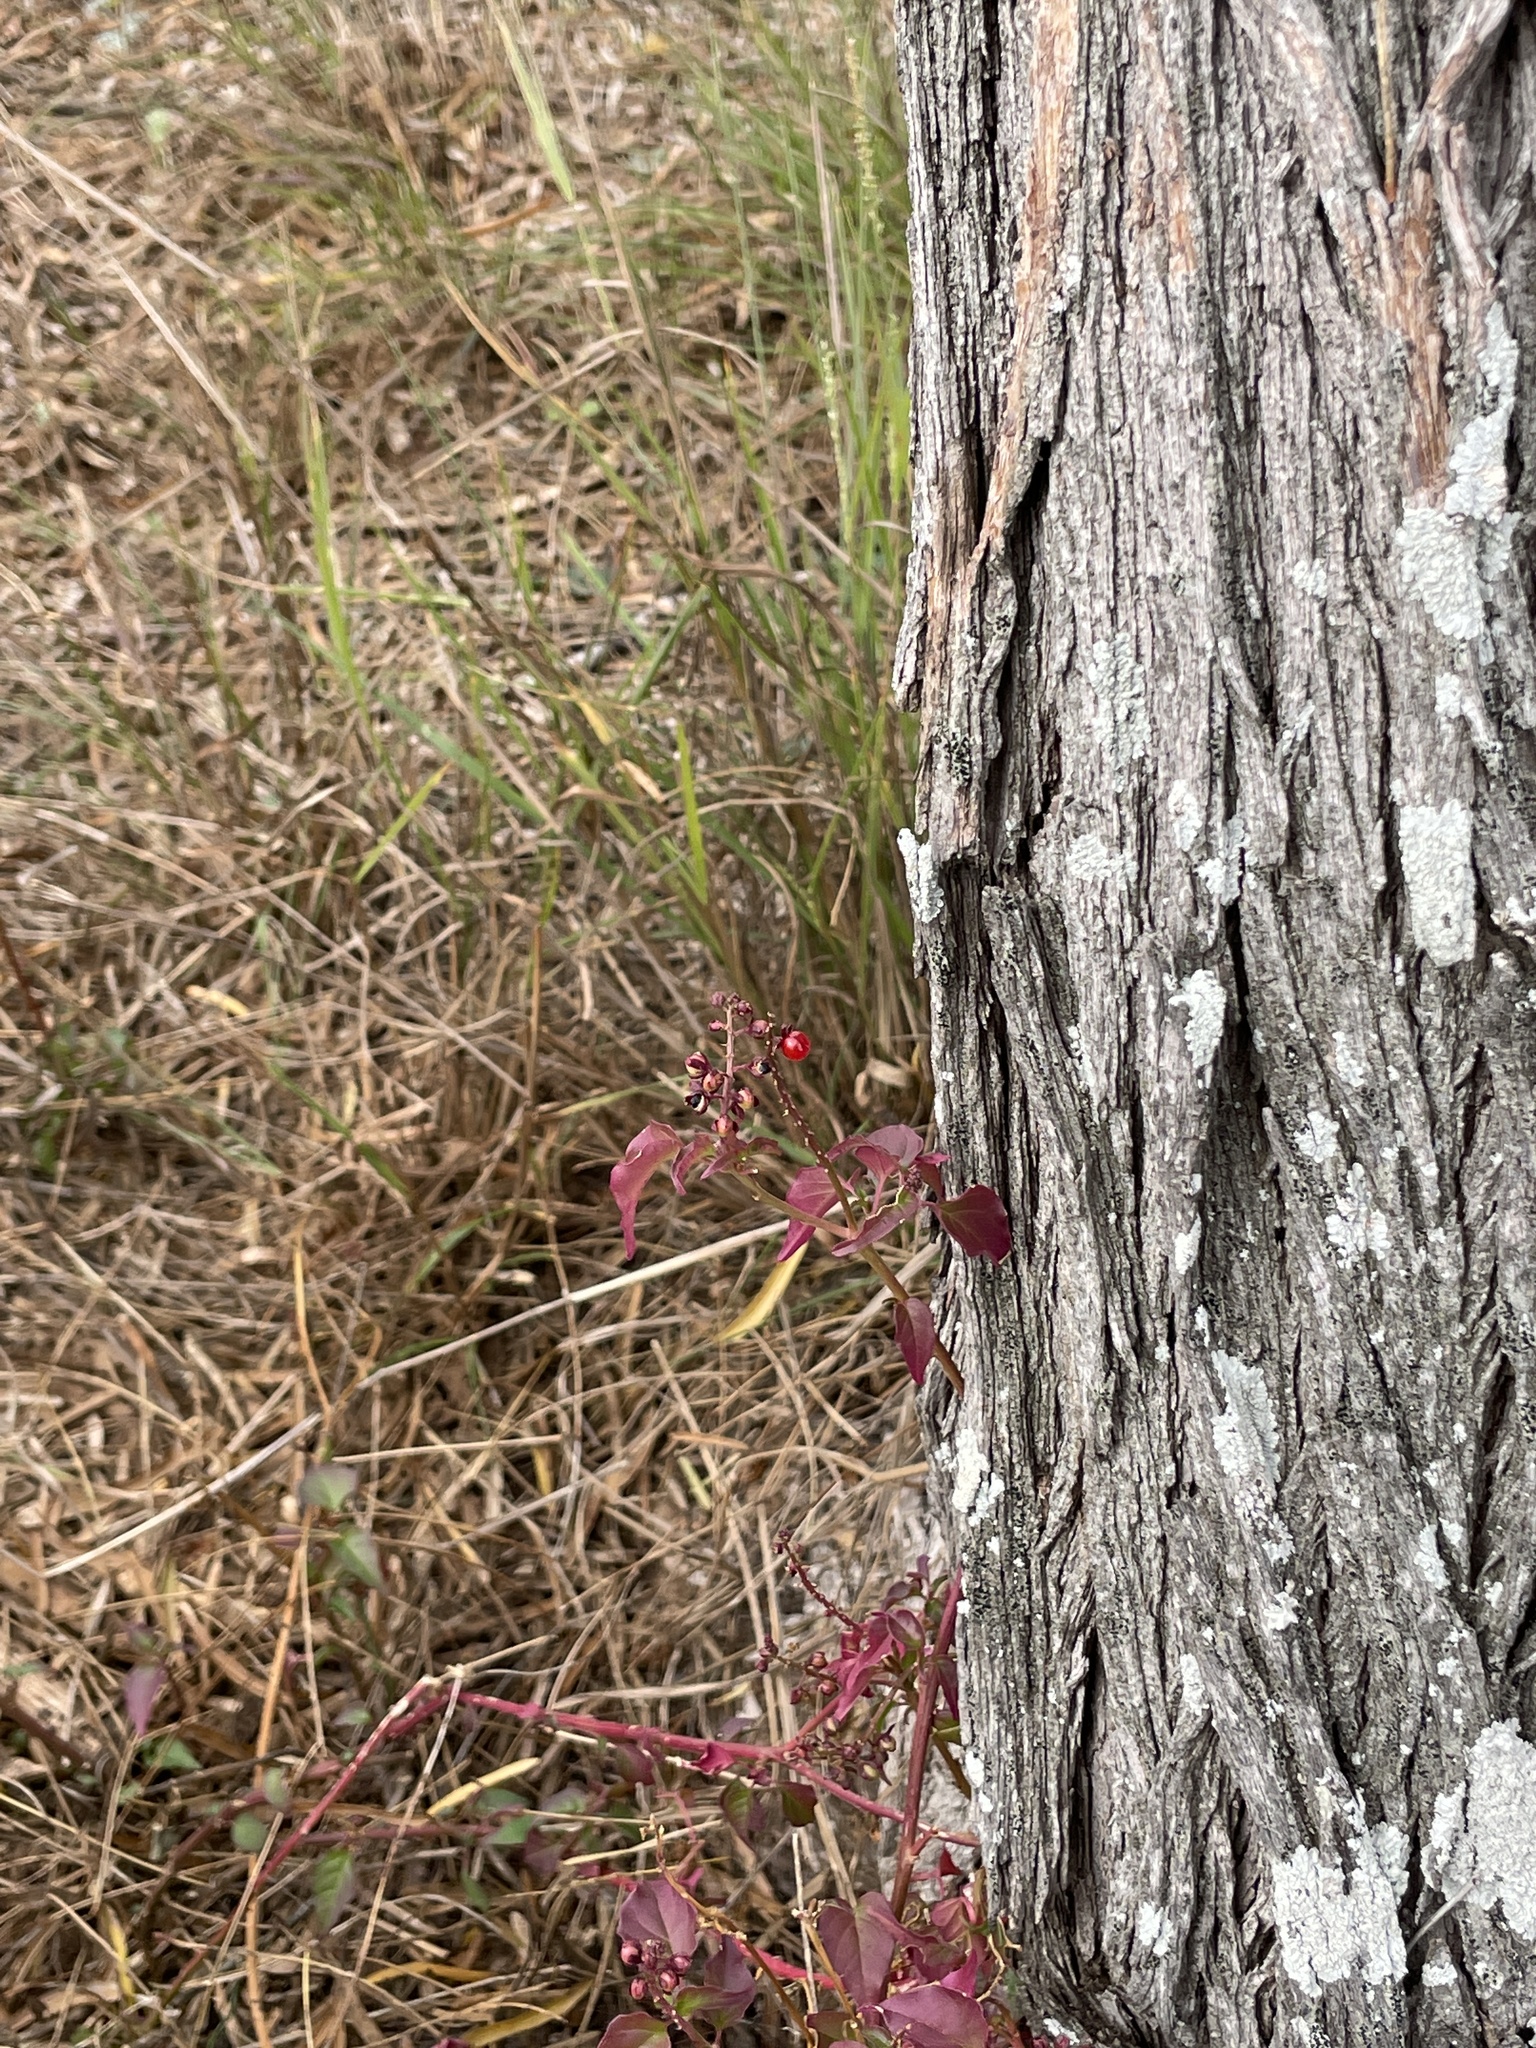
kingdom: Plantae
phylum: Tracheophyta
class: Magnoliopsida
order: Caryophyllales
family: Phytolaccaceae
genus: Rivina
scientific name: Rivina humilis
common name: Rougeplant
